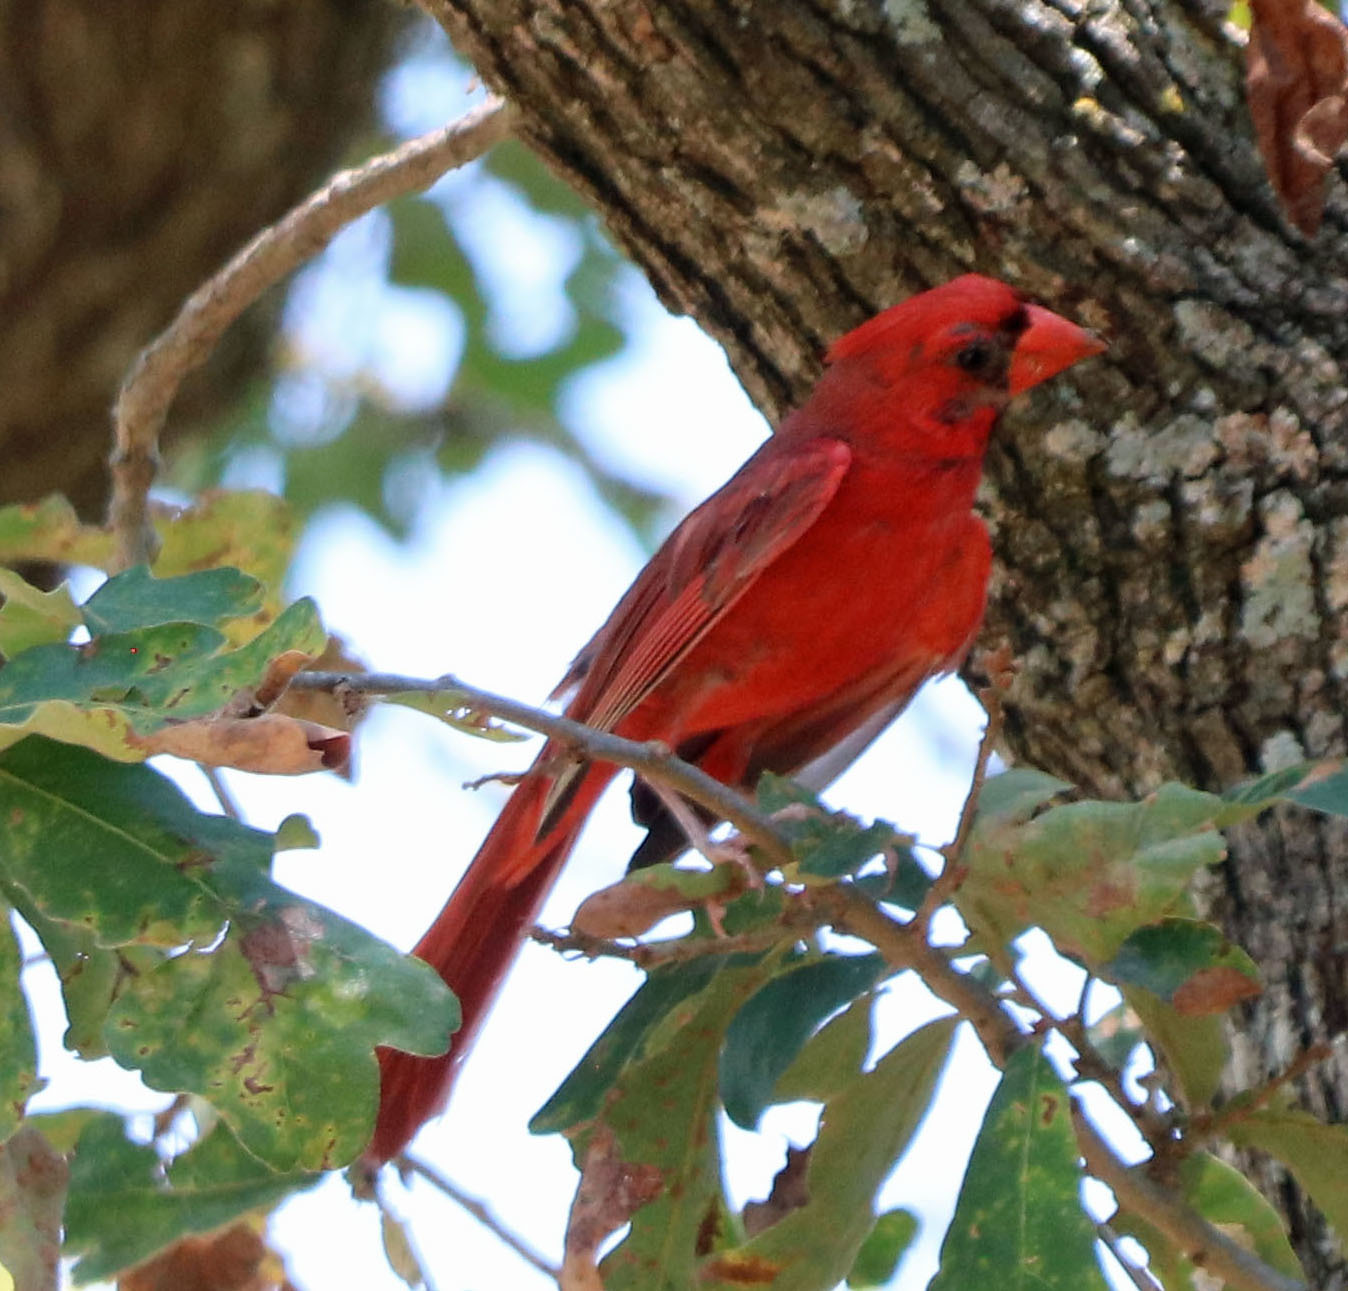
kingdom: Animalia
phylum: Chordata
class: Aves
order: Passeriformes
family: Cardinalidae
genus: Cardinalis
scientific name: Cardinalis cardinalis
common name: Northern cardinal
